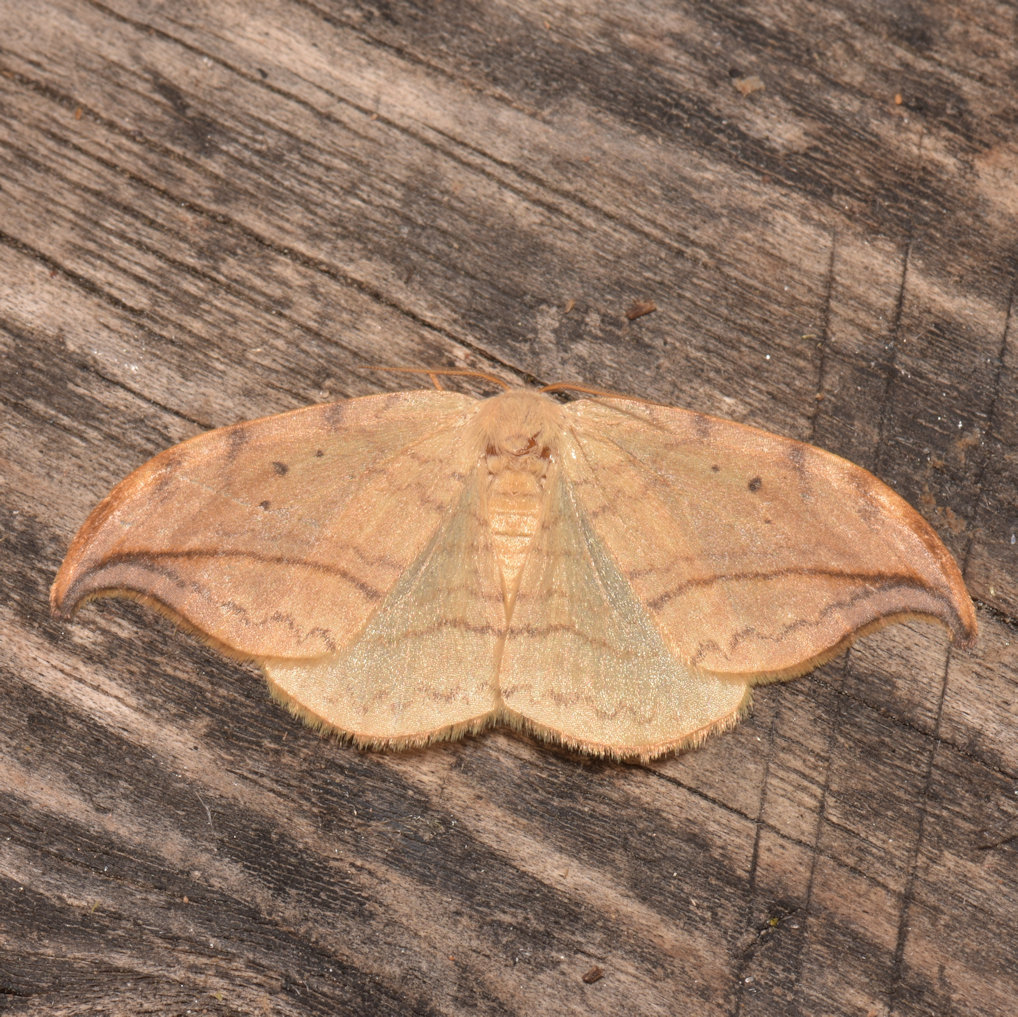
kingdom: Animalia
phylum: Arthropoda
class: Insecta
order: Lepidoptera
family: Drepanidae
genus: Drepana
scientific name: Drepana arcuata
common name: Arched hooktip moth
